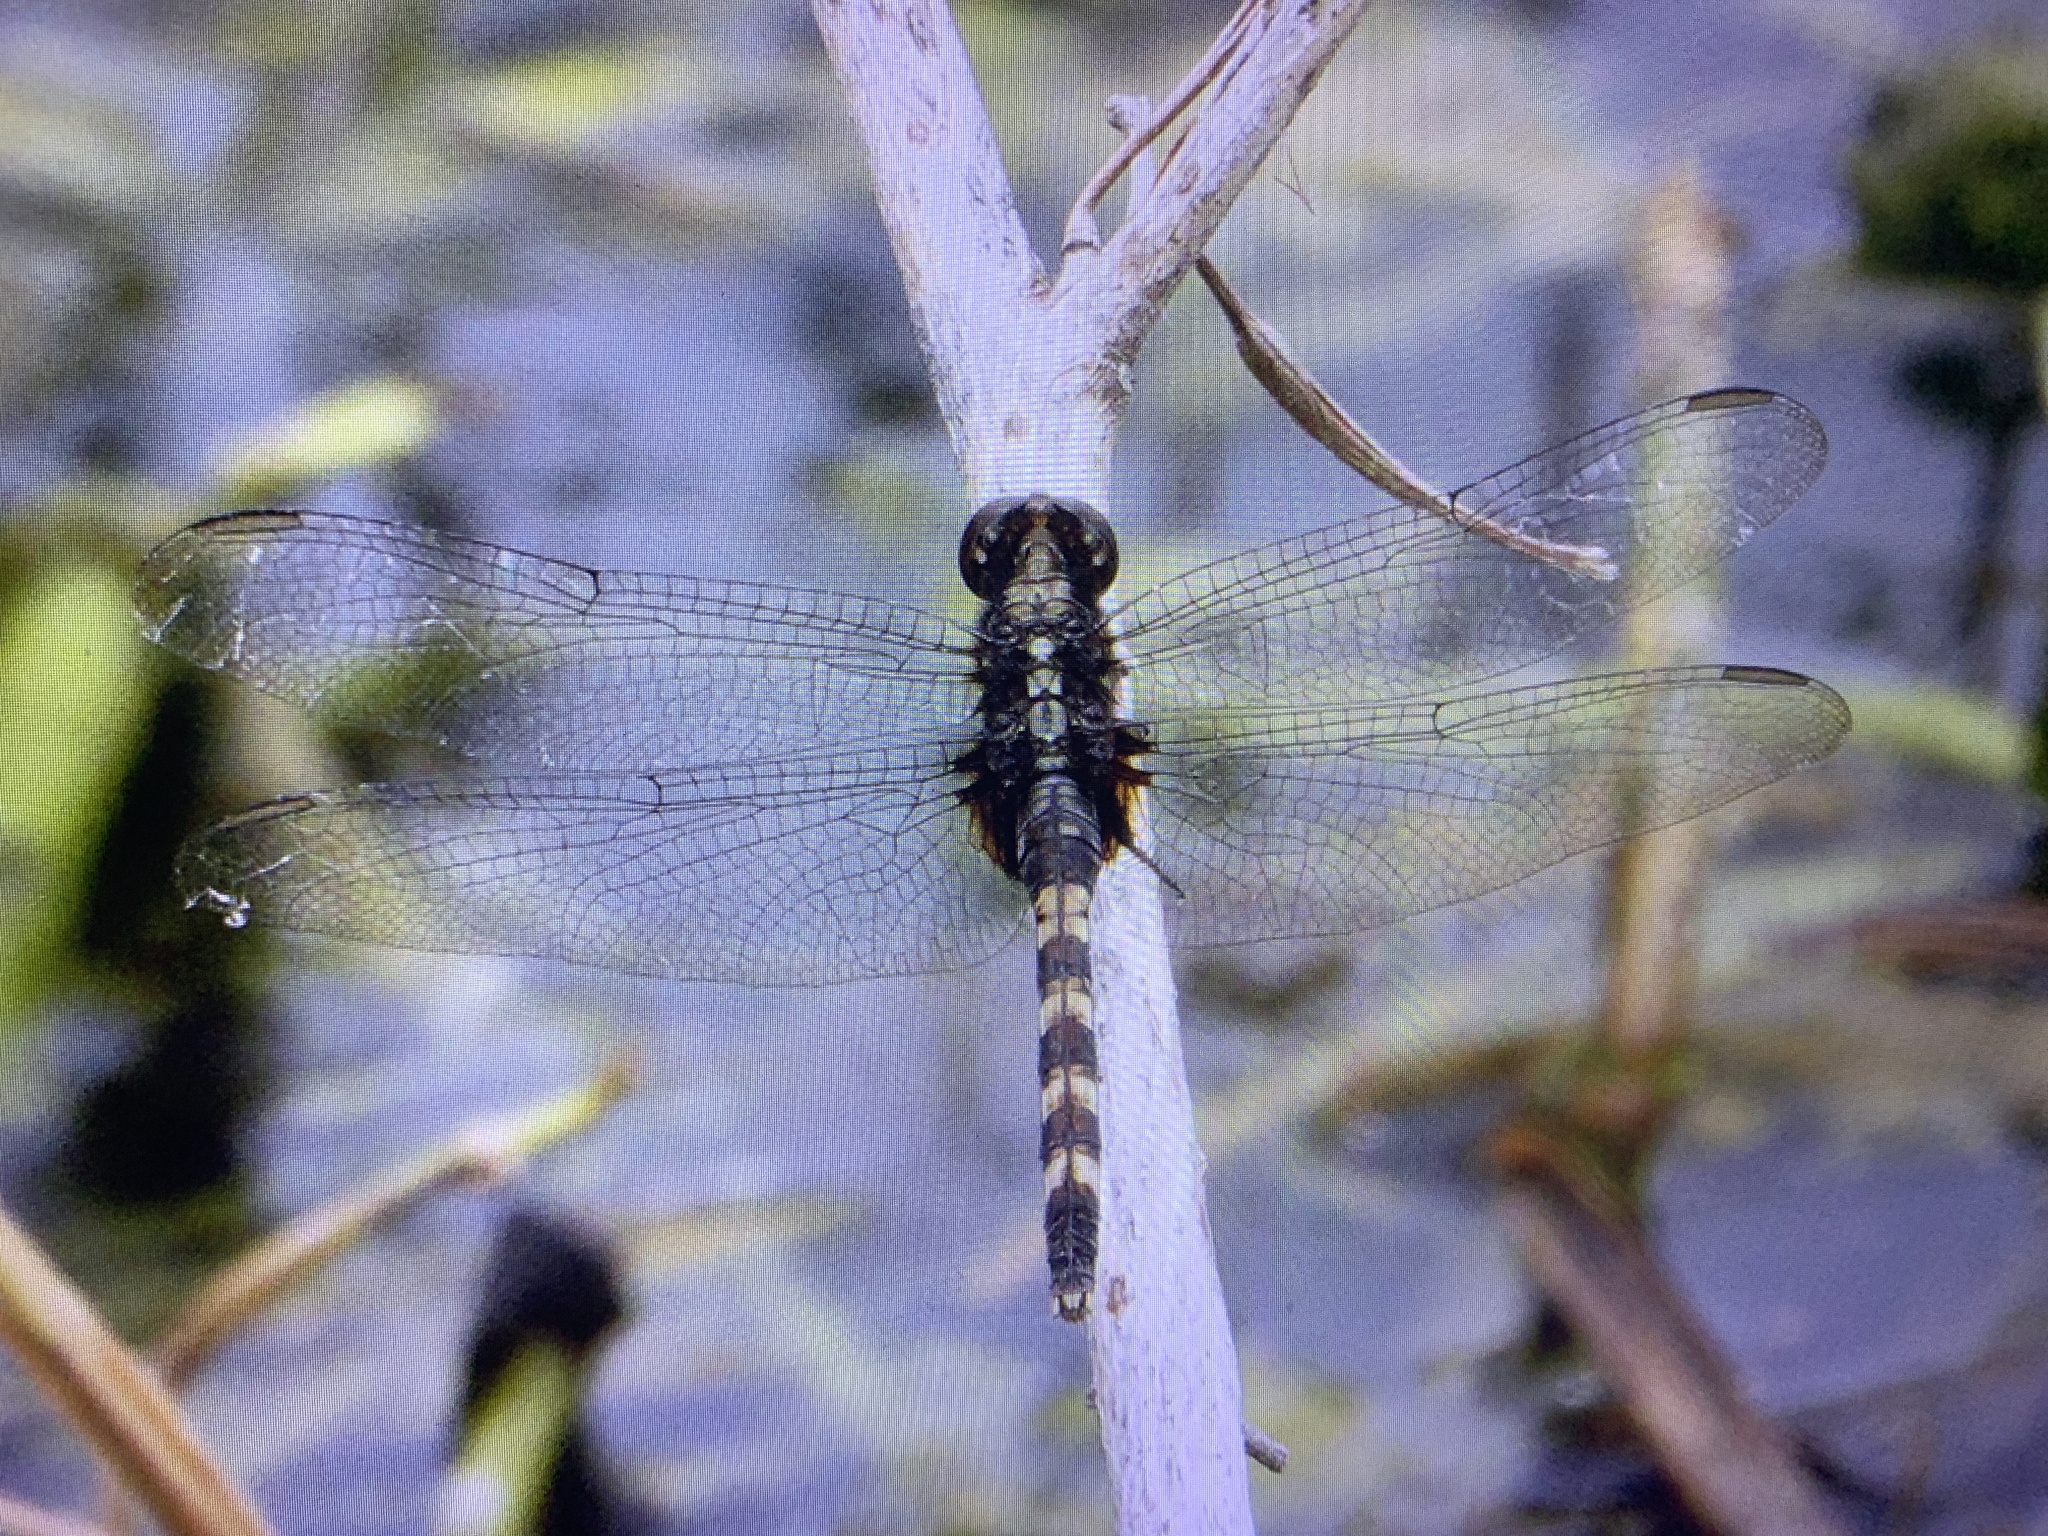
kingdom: Animalia
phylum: Arthropoda
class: Insecta
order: Odonata
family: Libellulidae
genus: Erythemis
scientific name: Erythemis plebeja
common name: Pin-tailed pondhawk
